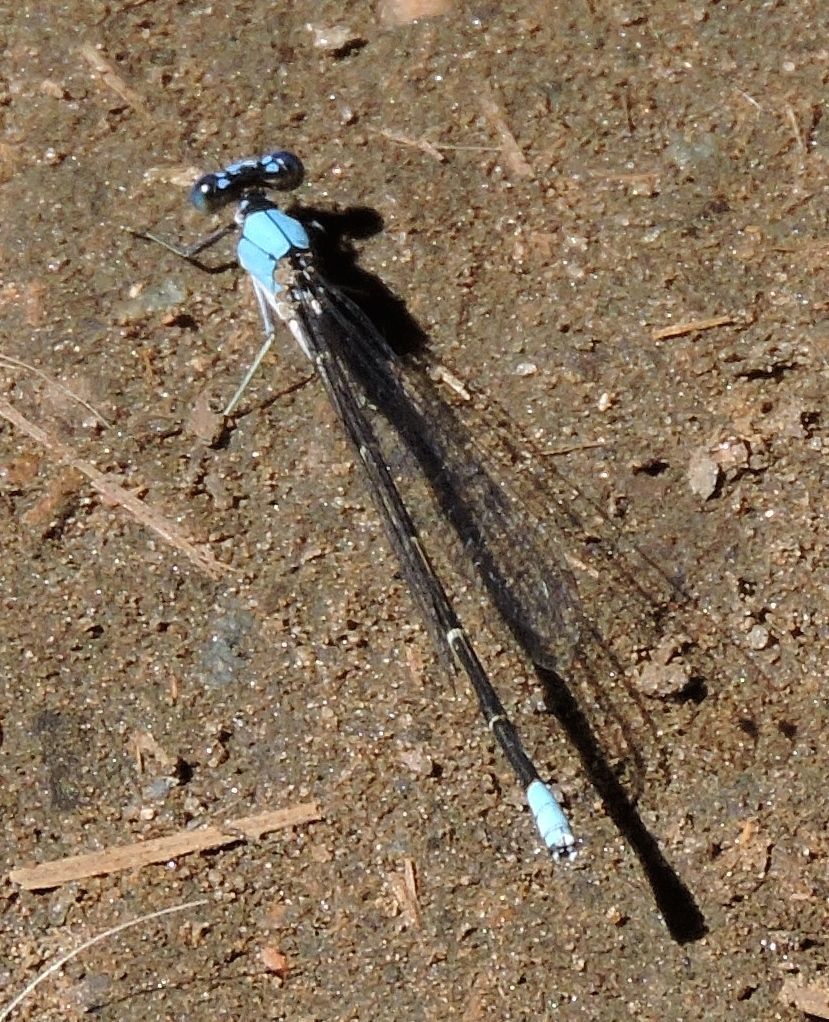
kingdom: Animalia
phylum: Arthropoda
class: Insecta
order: Odonata
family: Coenagrionidae
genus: Argia
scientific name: Argia apicalis
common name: Blue-fronted dancer
